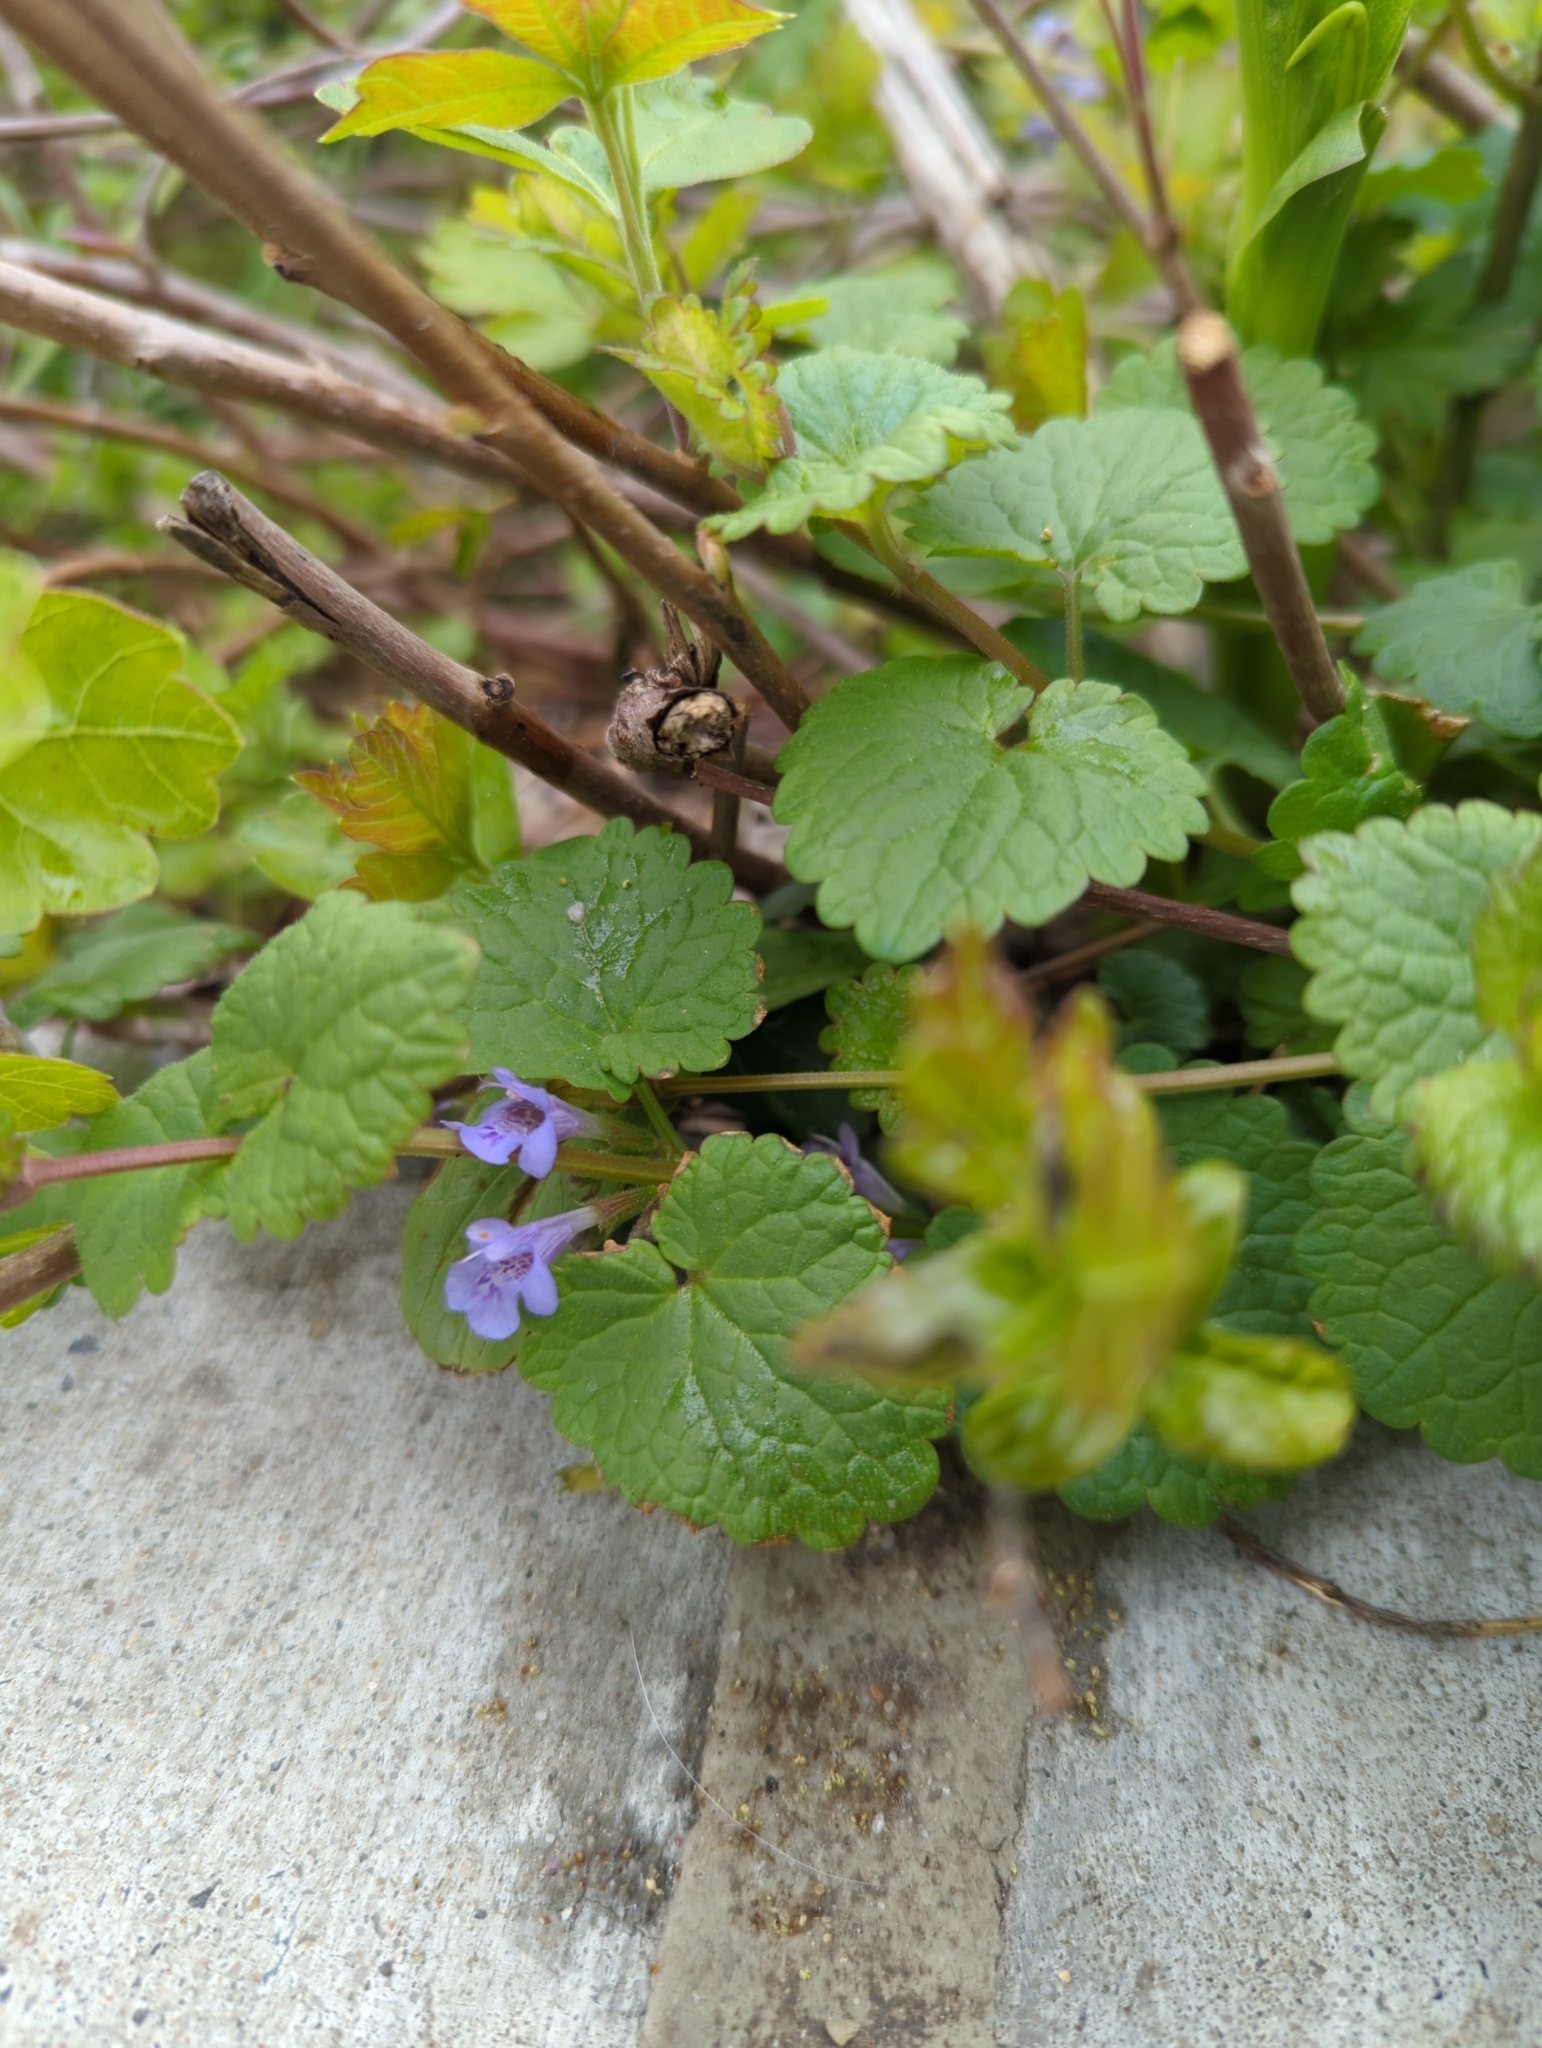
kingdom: Plantae
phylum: Tracheophyta
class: Magnoliopsida
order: Lamiales
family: Lamiaceae
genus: Glechoma
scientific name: Glechoma hederacea
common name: Ground ivy
